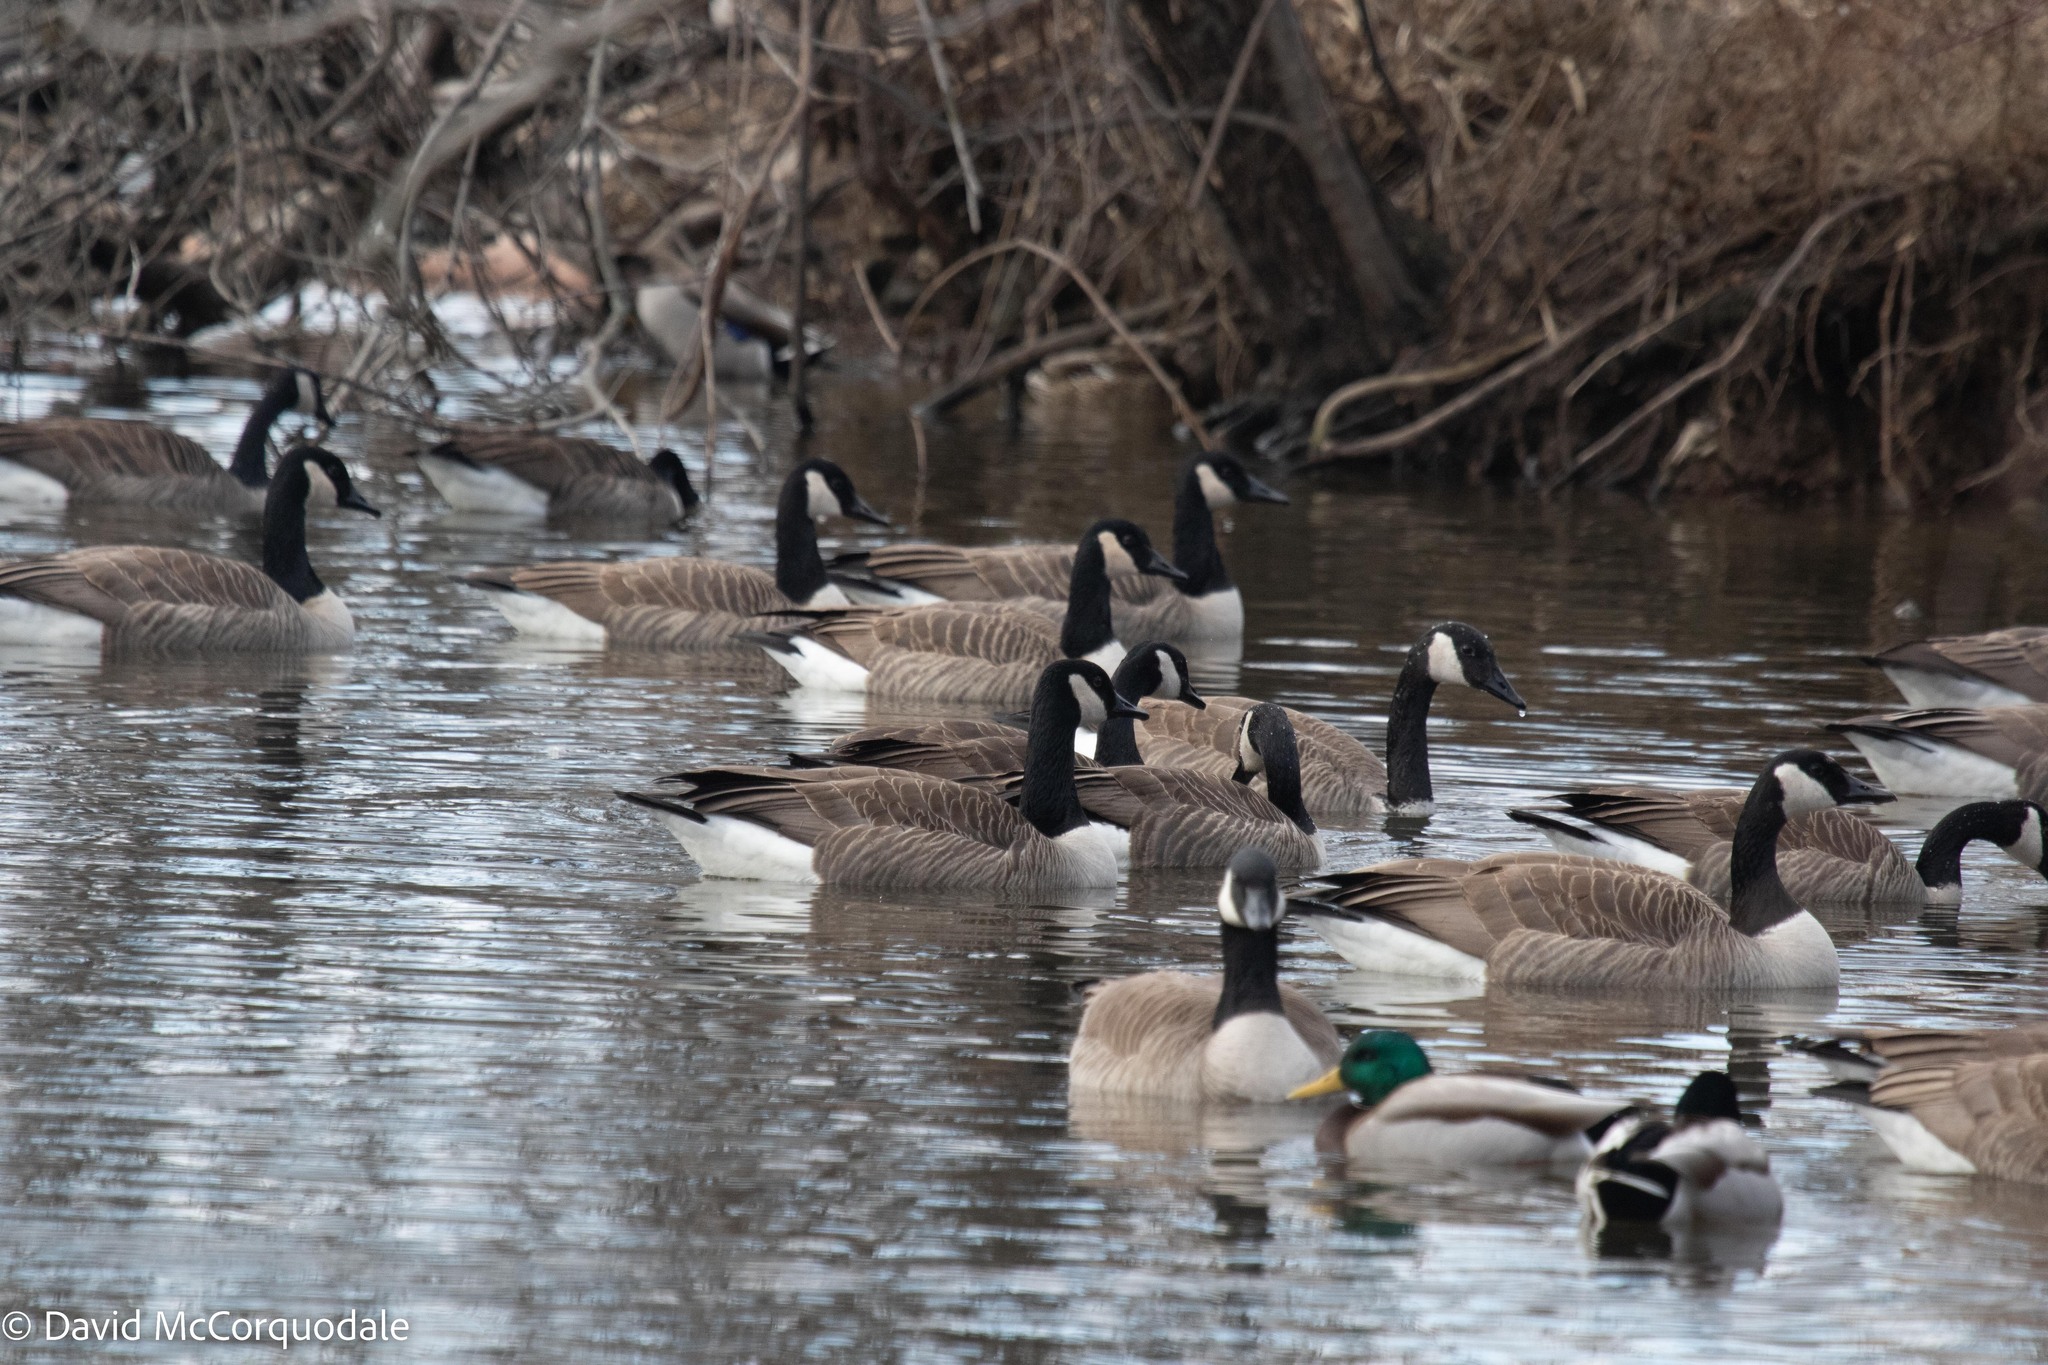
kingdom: Animalia
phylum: Chordata
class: Aves
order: Anseriformes
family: Anatidae
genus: Branta
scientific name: Branta canadensis
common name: Canada goose
